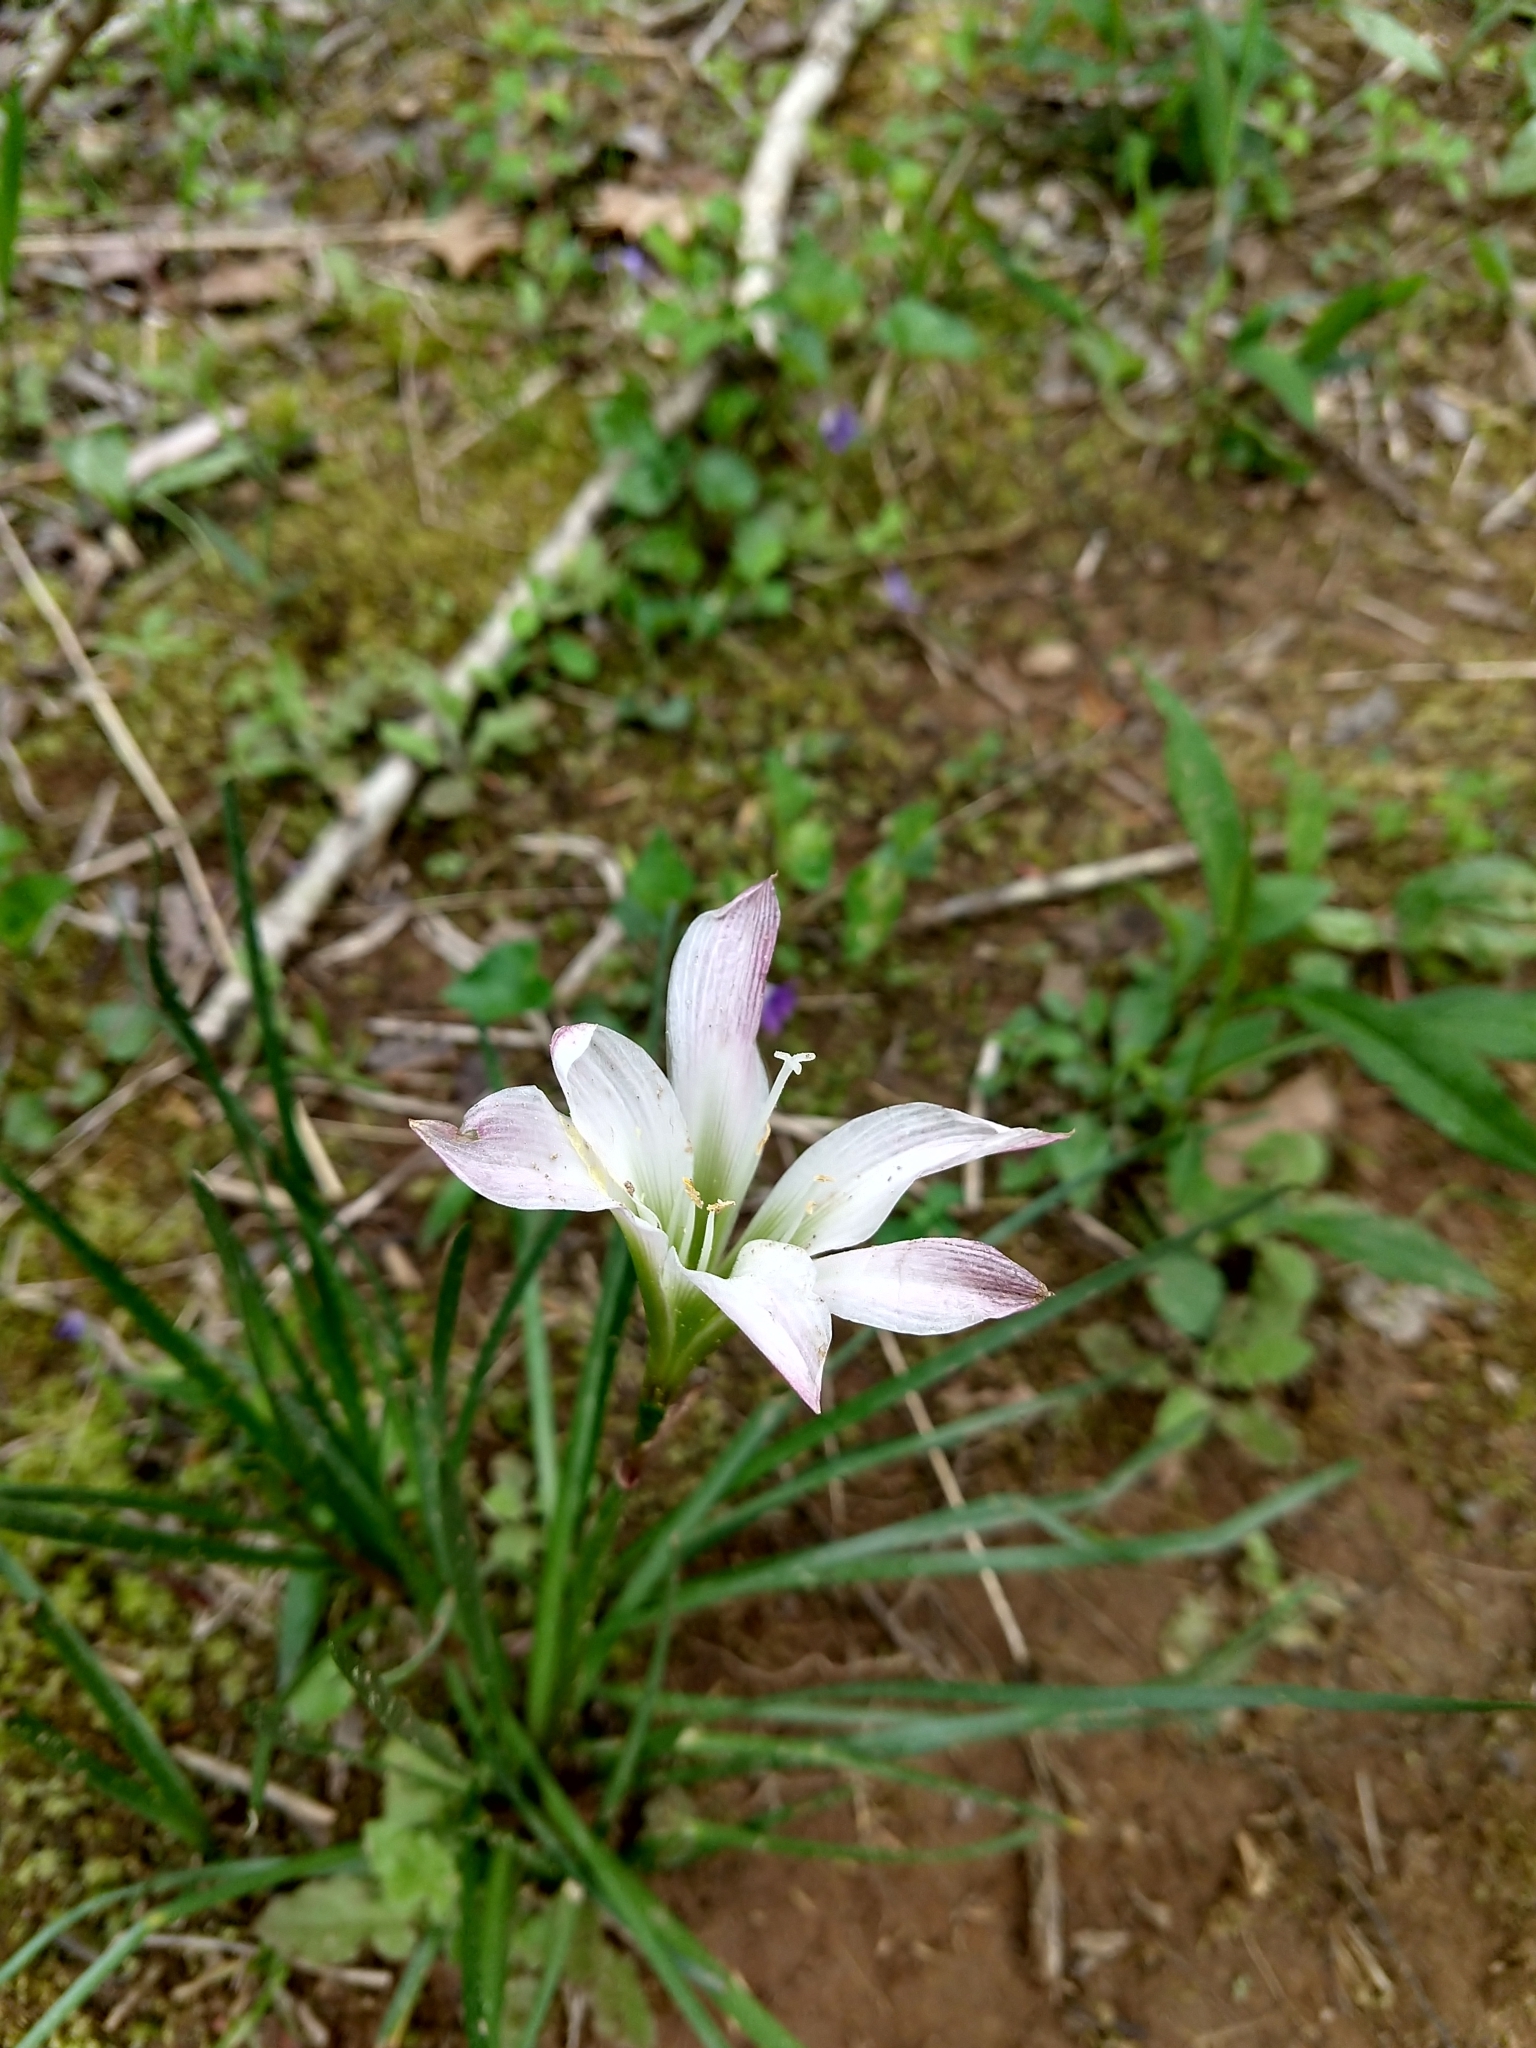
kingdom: Plantae
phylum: Tracheophyta
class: Liliopsida
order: Asparagales
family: Amaryllidaceae
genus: Zephyranthes
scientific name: Zephyranthes atamasco
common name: Atamasco lily
